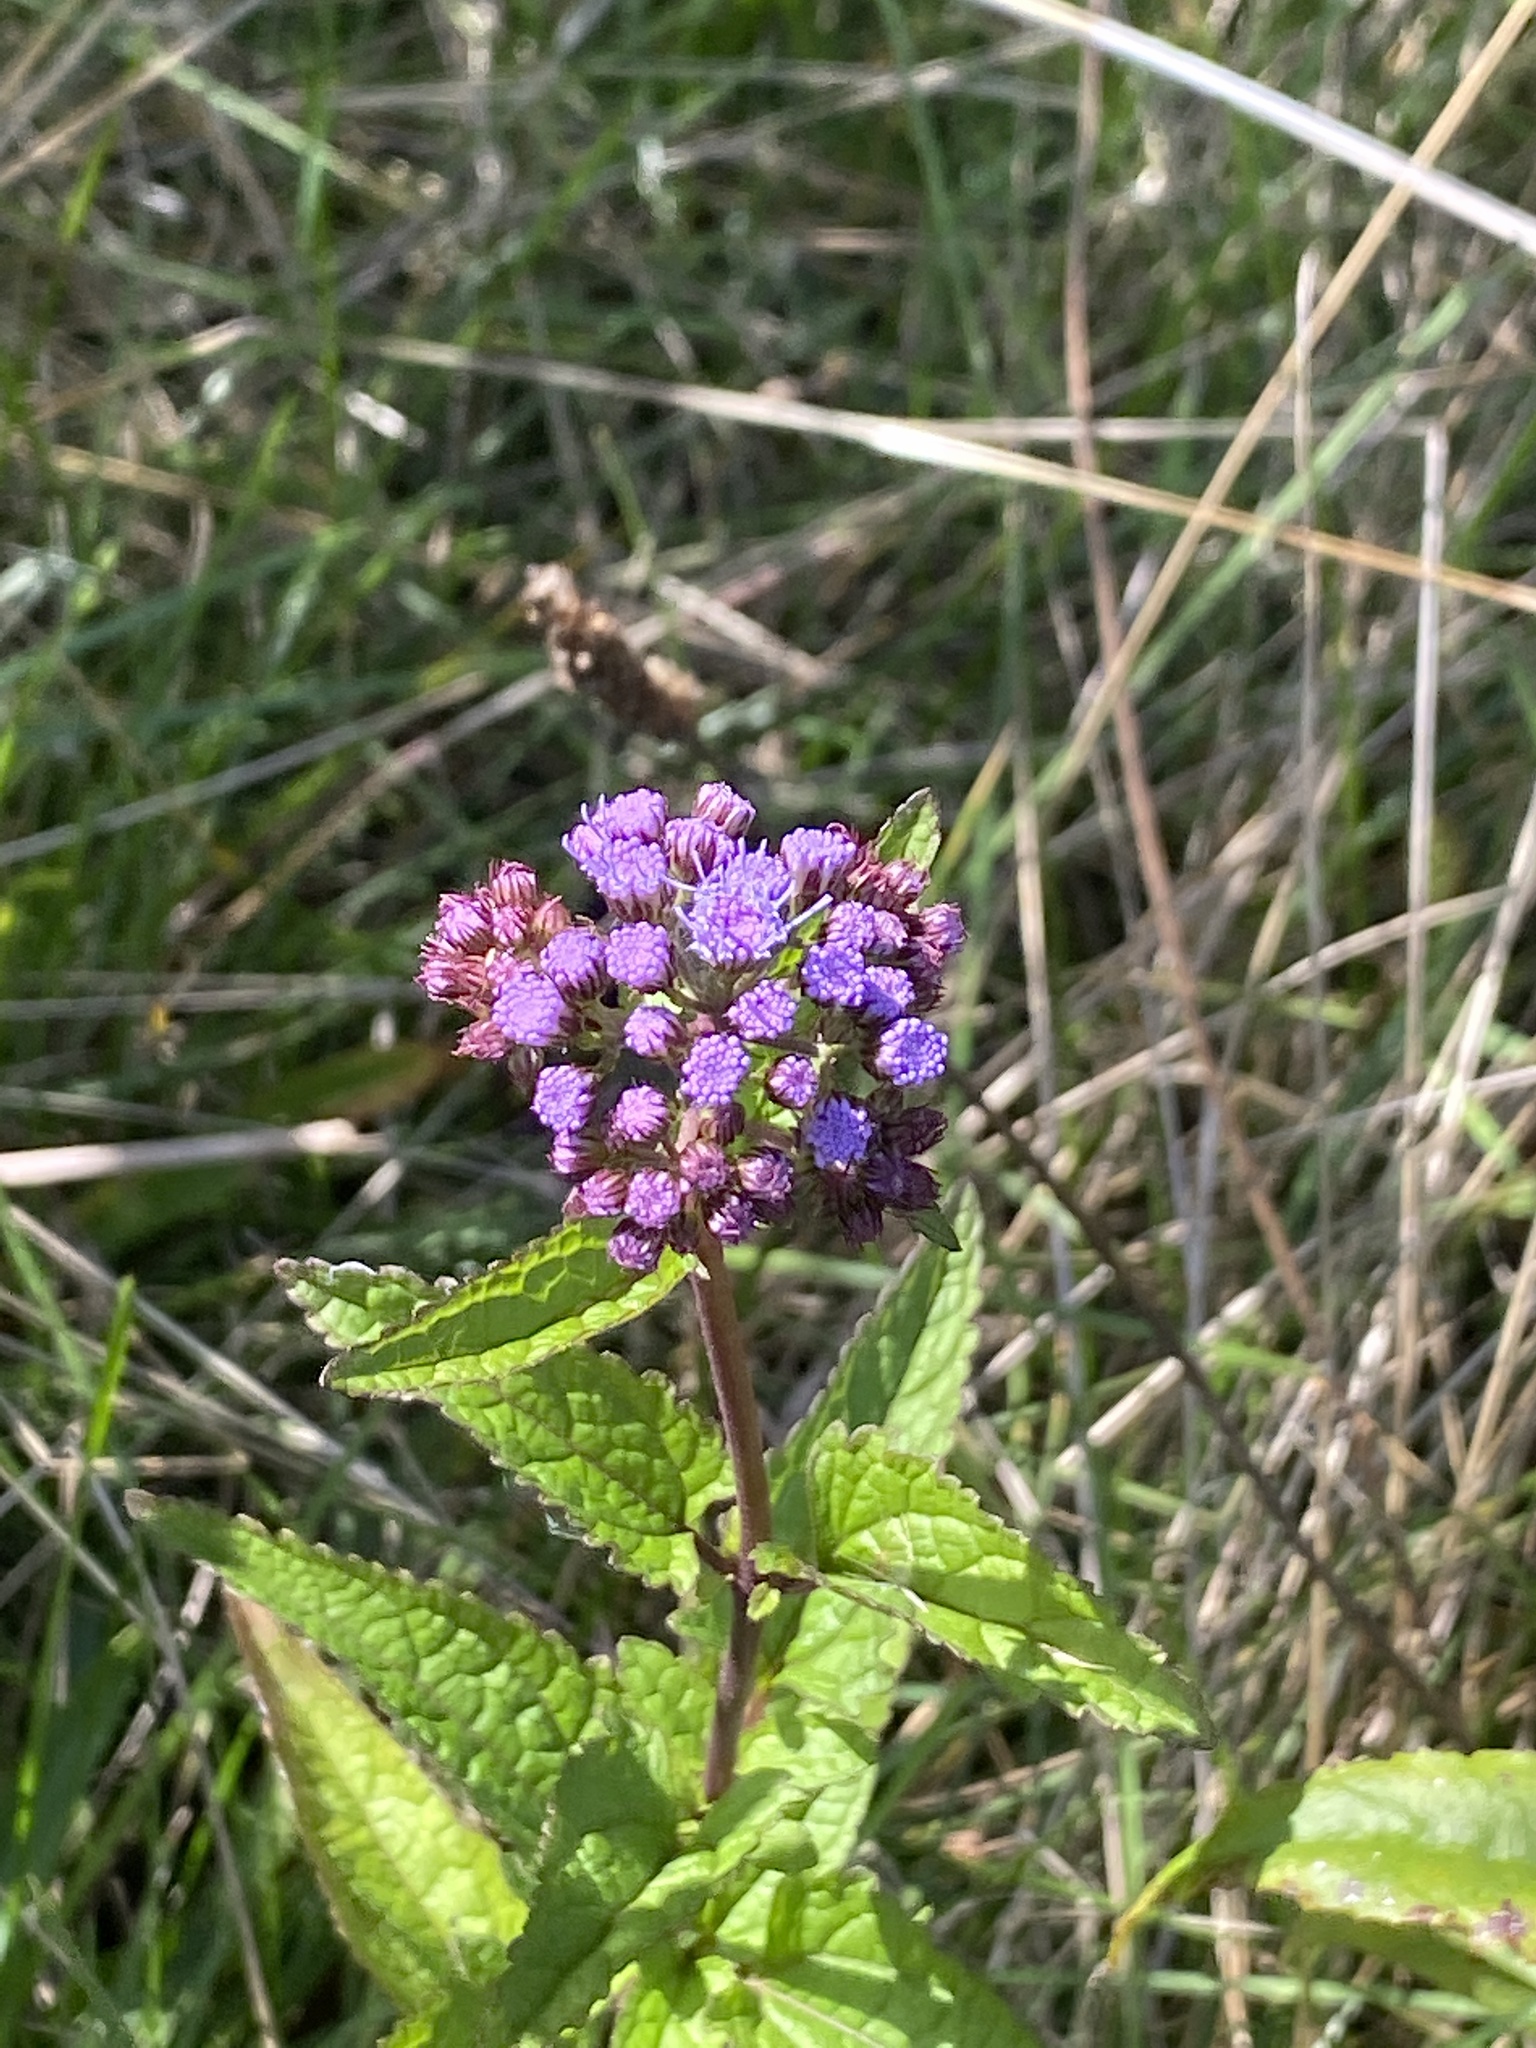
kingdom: Plantae
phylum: Tracheophyta
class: Magnoliopsida
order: Asterales
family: Asteraceae
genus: Conoclinium
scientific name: Conoclinium coelestinum
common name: Blue mistflower
